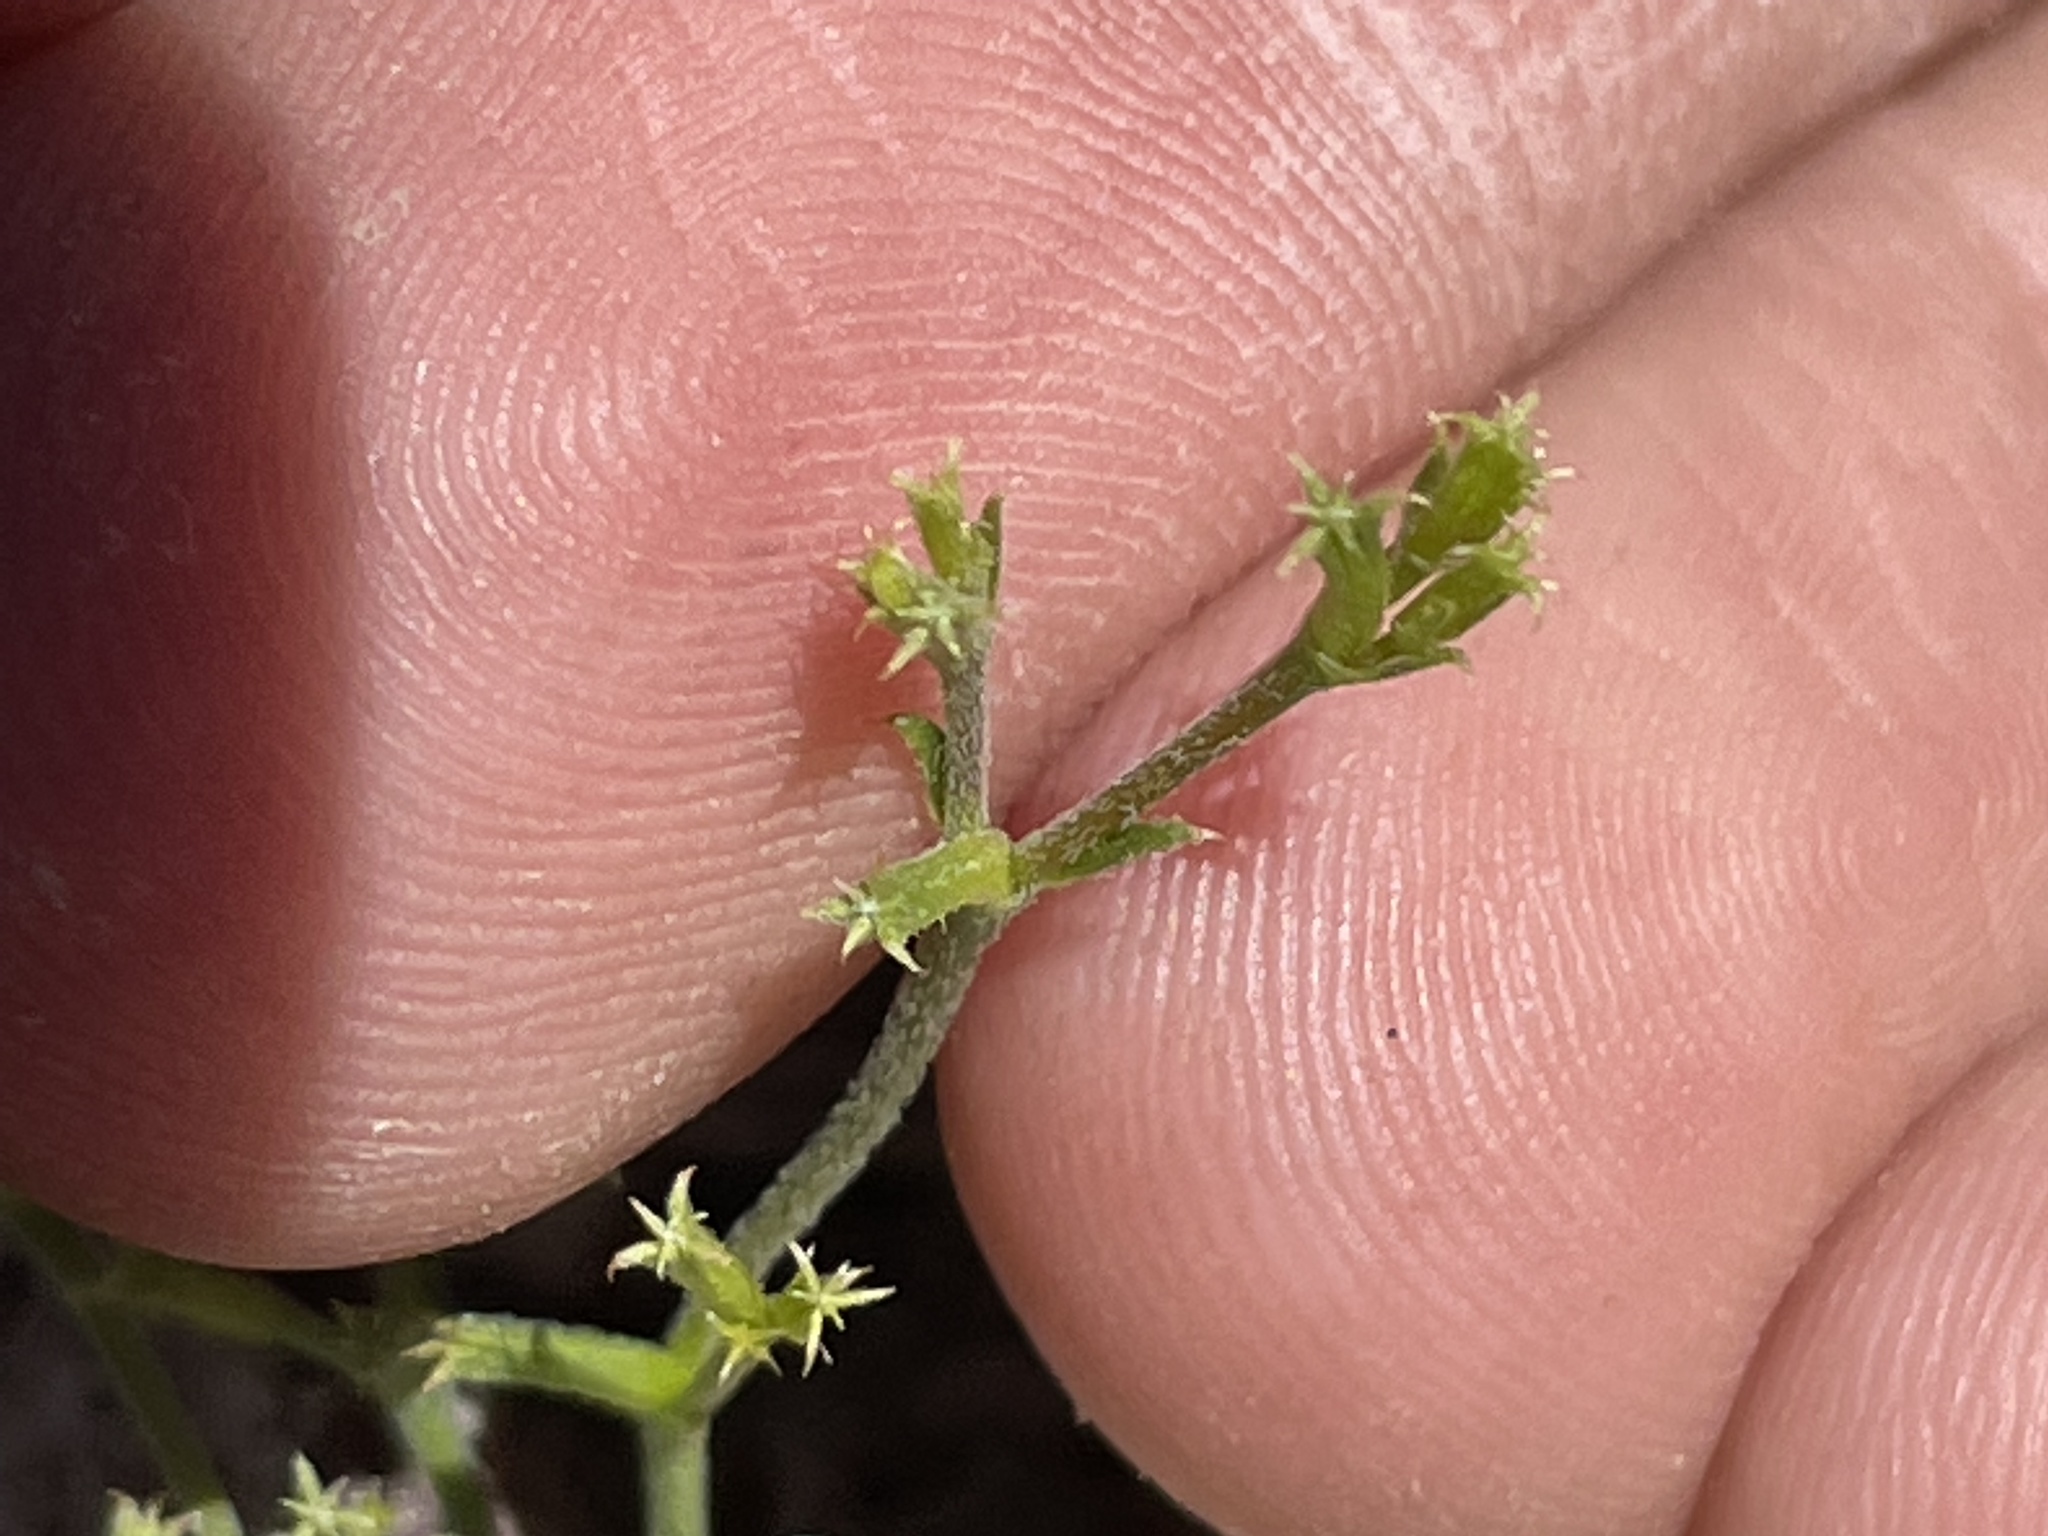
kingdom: Plantae
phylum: Tracheophyta
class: Magnoliopsida
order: Caryophyllales
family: Polygonaceae
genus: Chorizanthe
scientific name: Chorizanthe brevicornu
